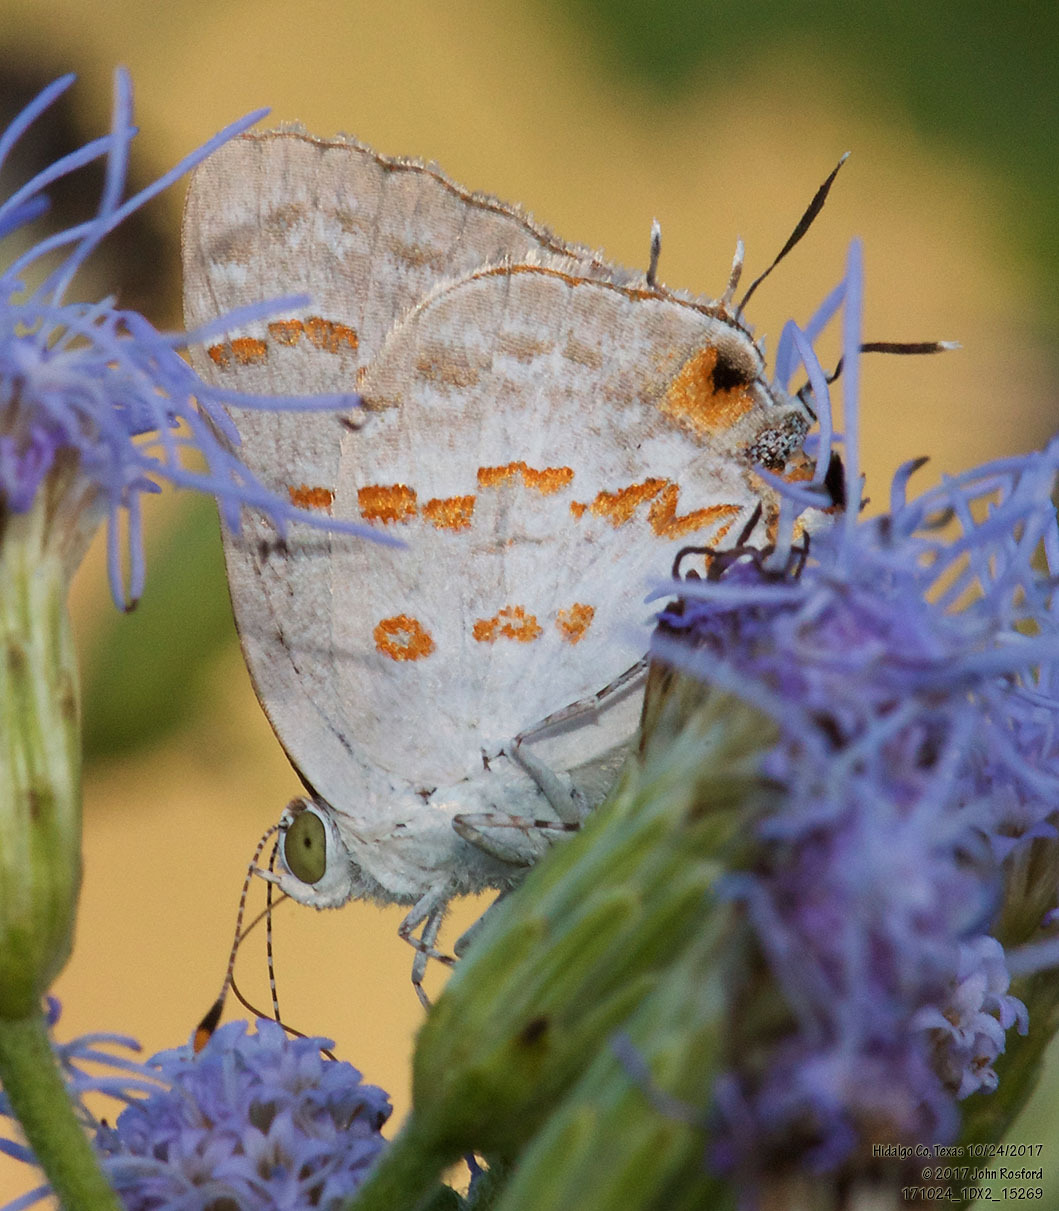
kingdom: Animalia
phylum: Arthropoda
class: Insecta
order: Lepidoptera
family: Lycaenidae
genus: Ministrymon
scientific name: Ministrymon clytie
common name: Clytie ministreak
